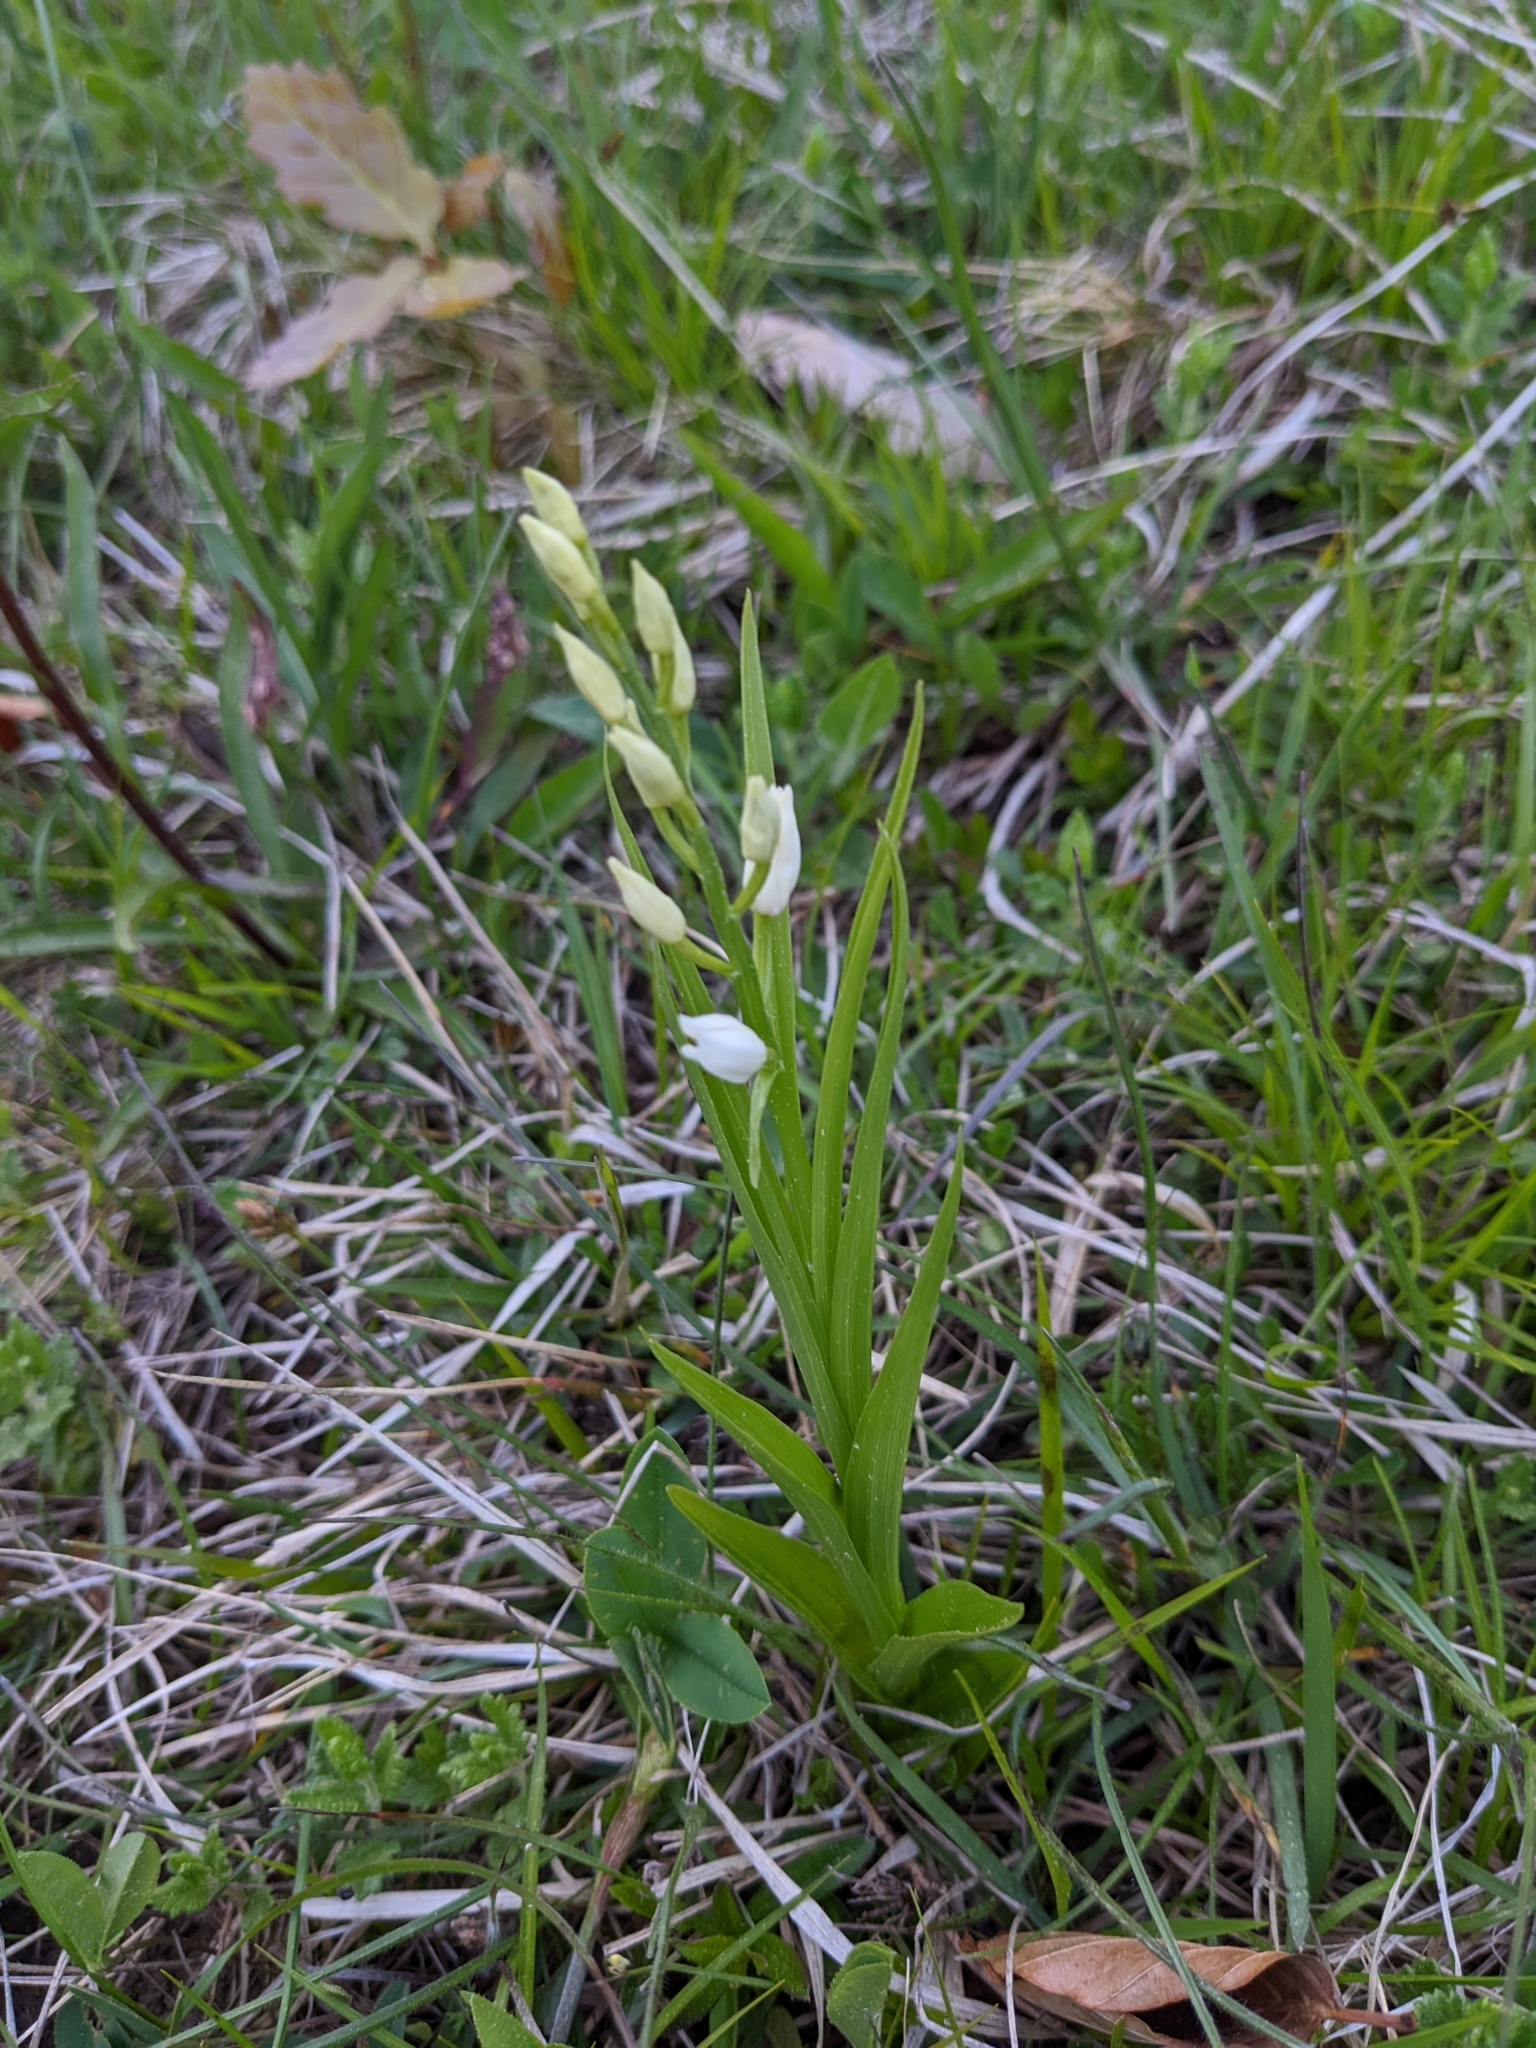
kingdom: Plantae
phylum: Tracheophyta
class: Liliopsida
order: Asparagales
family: Orchidaceae
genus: Cephalanthera
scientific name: Cephalanthera longifolia
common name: Narrow-leaved helleborine
